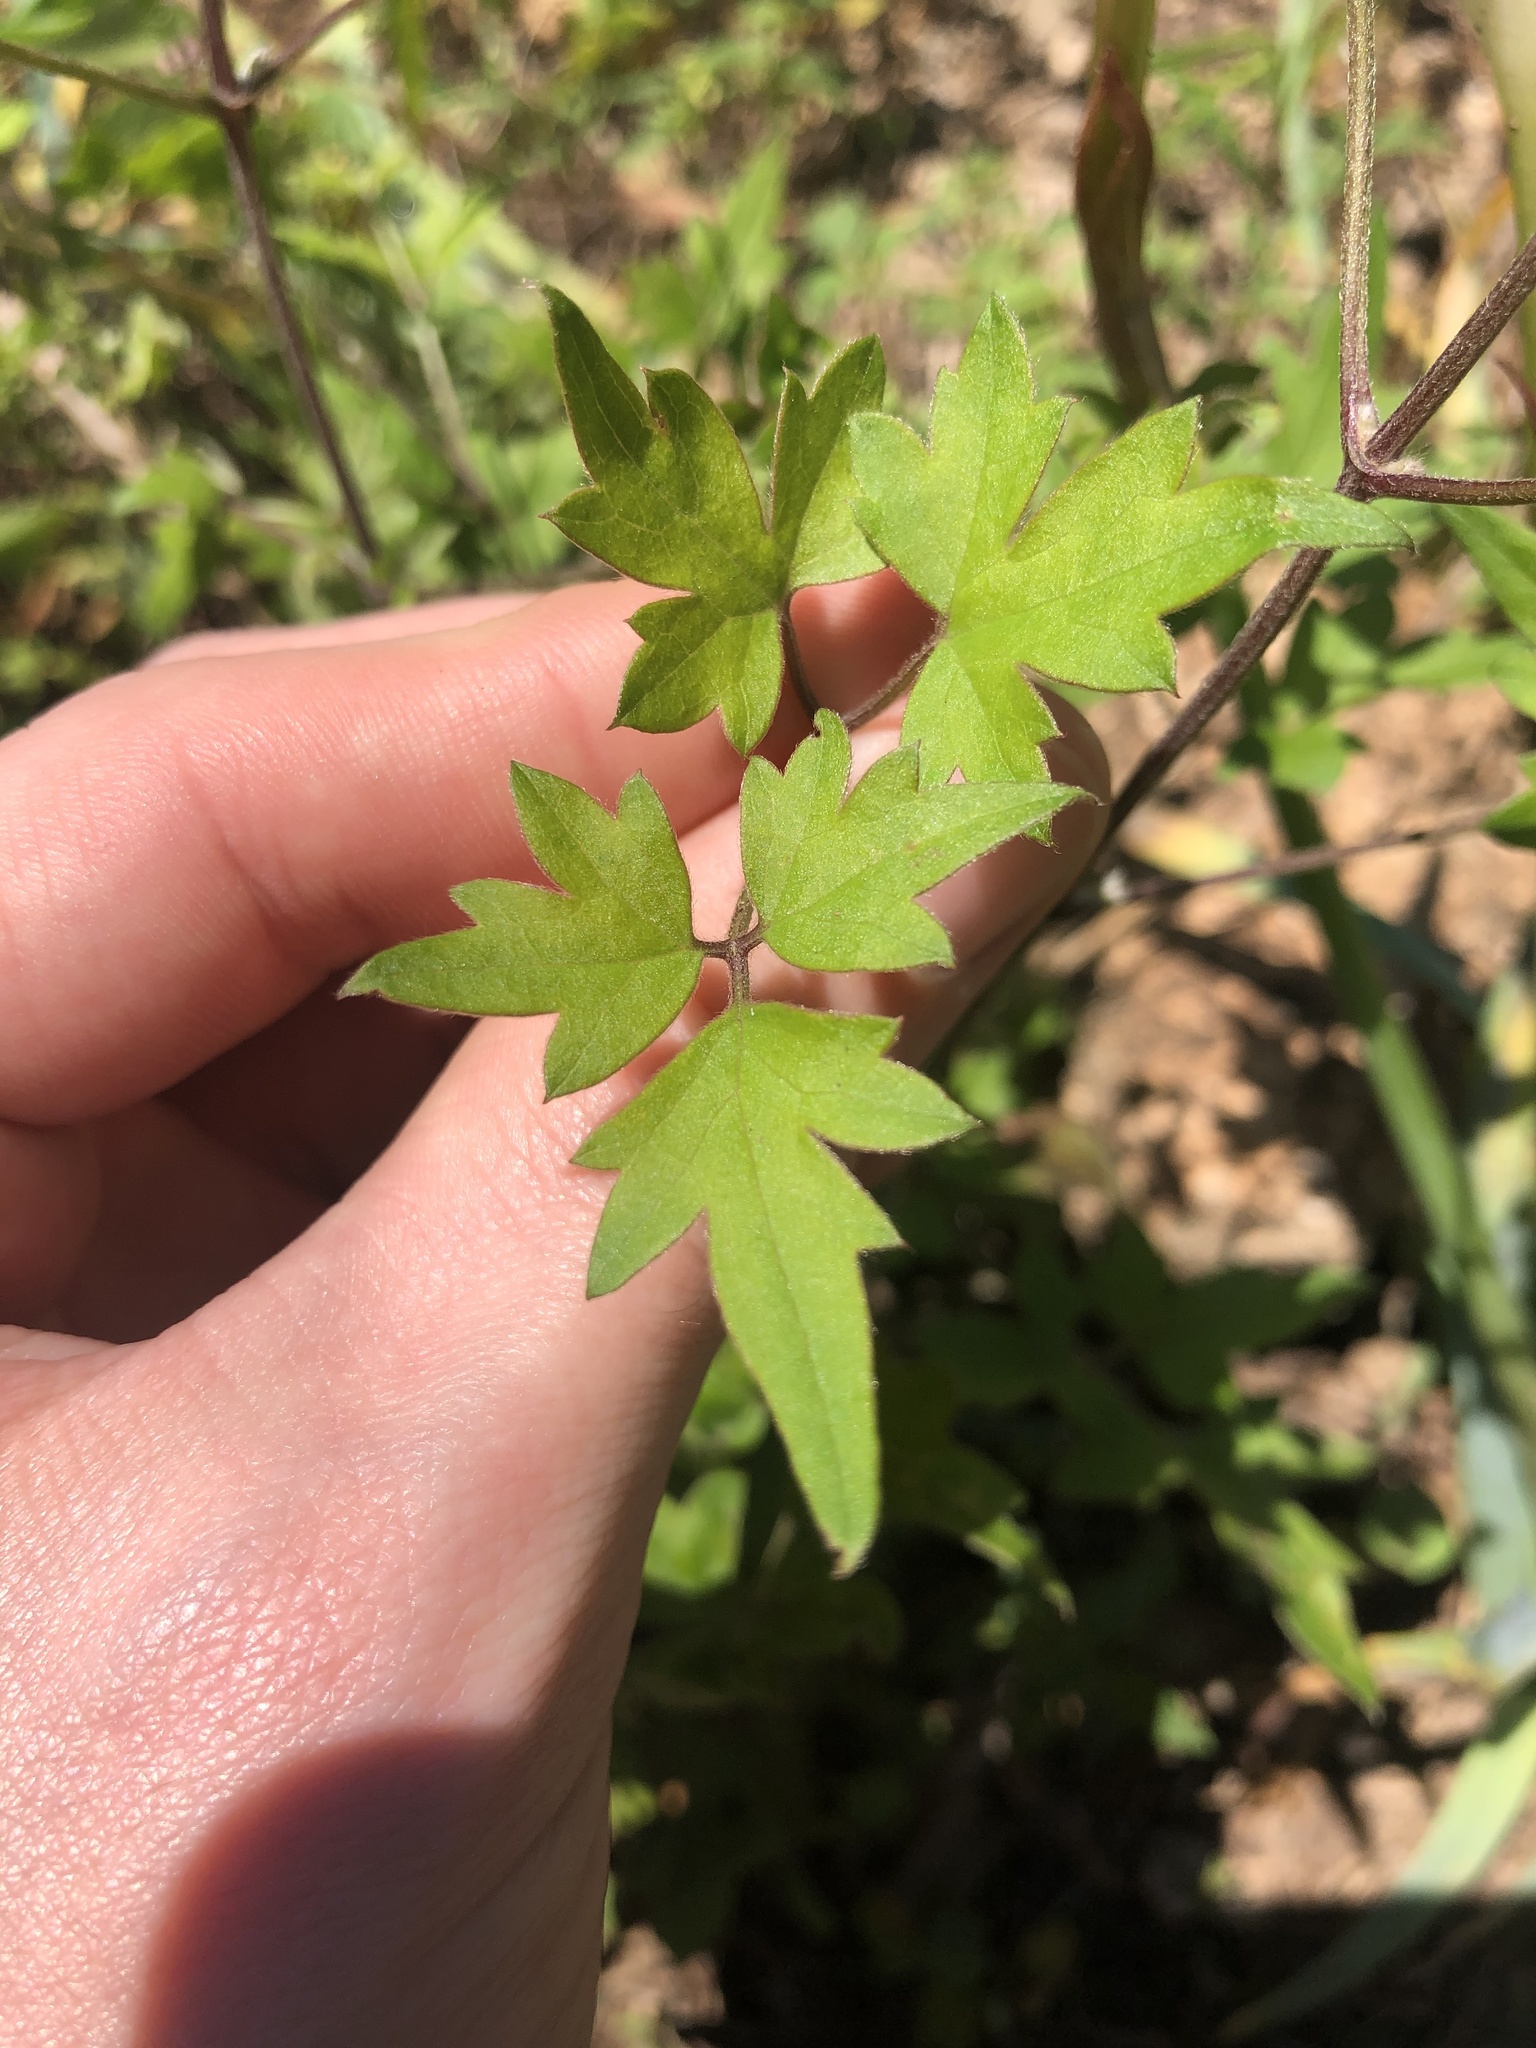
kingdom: Plantae
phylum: Tracheophyta
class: Magnoliopsida
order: Ranunculales
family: Ranunculaceae
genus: Clematis
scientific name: Clematis drummondii
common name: Texas virgin's bower
